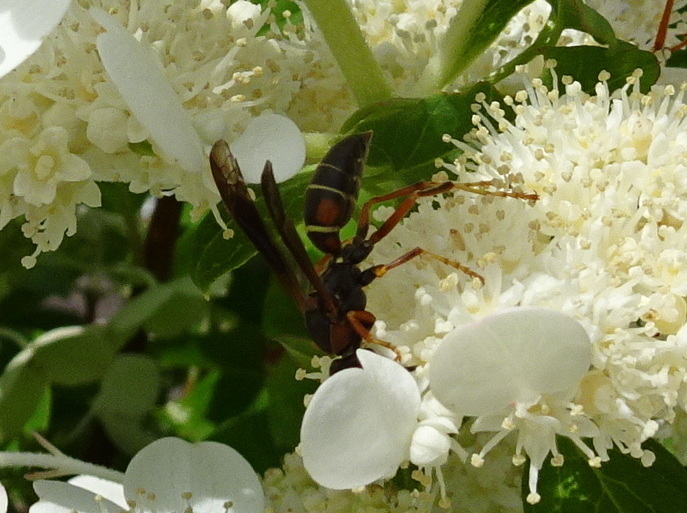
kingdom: Animalia
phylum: Arthropoda
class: Insecta
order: Hymenoptera
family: Eumenidae
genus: Polistes
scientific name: Polistes fuscatus
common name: Dark paper wasp
